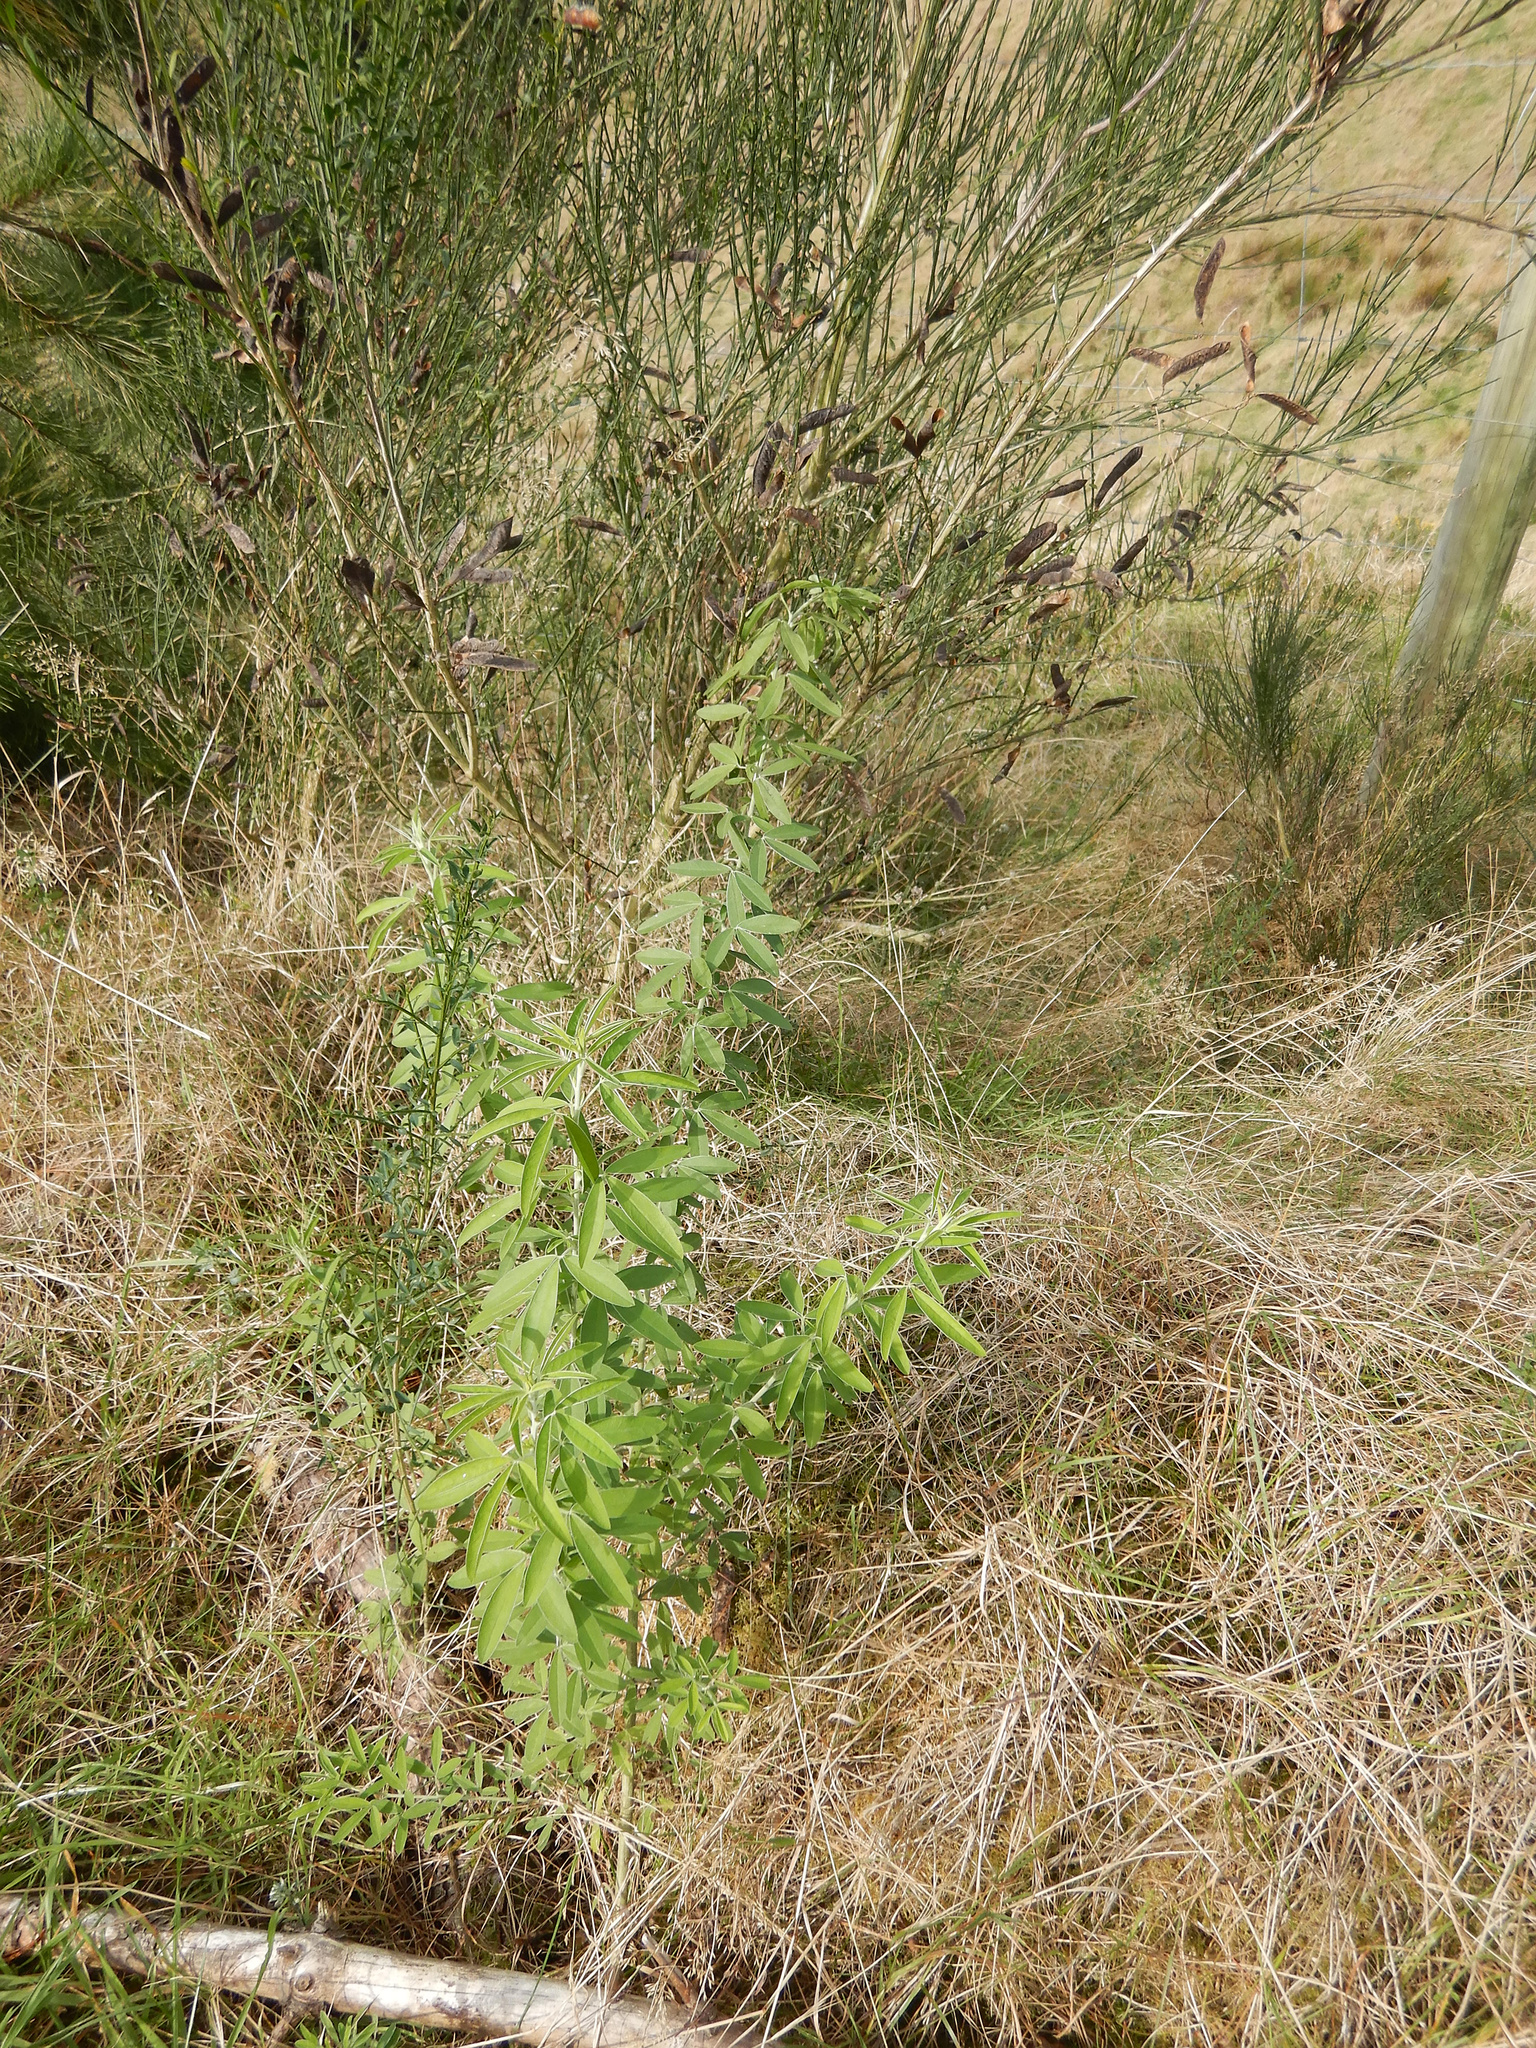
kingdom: Plantae
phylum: Tracheophyta
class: Magnoliopsida
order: Fabales
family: Fabaceae
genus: Chamaecytisus
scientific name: Chamaecytisus prolifer
